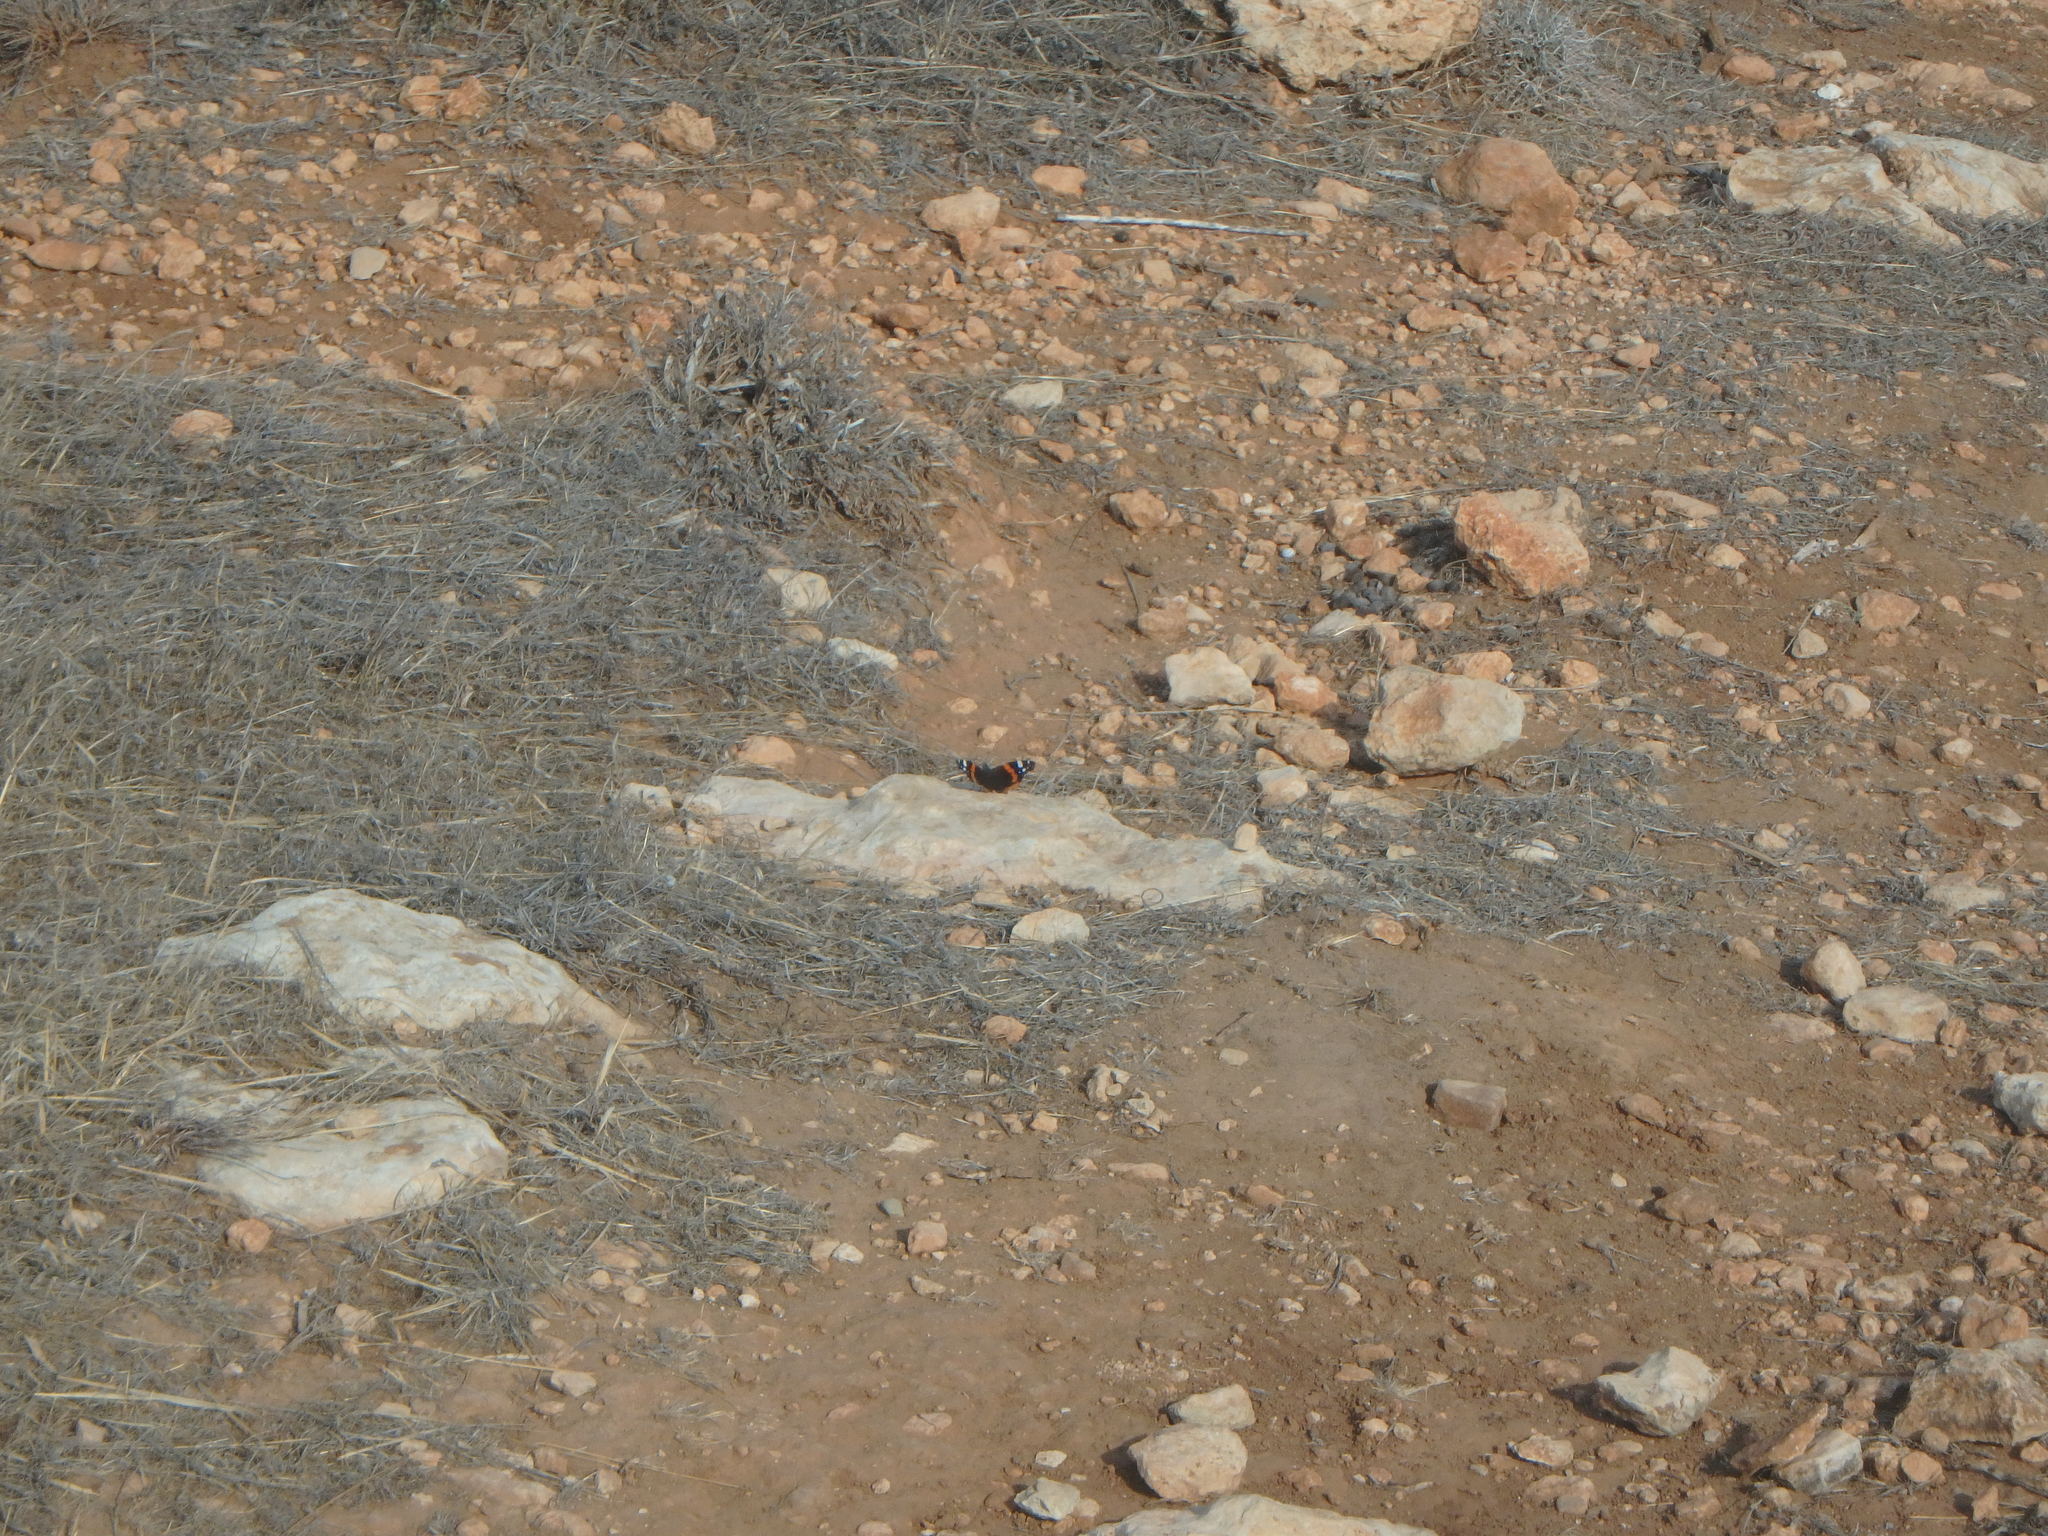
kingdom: Animalia
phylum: Arthropoda
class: Insecta
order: Lepidoptera
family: Nymphalidae
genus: Vanessa
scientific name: Vanessa atalanta
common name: Red admiral
